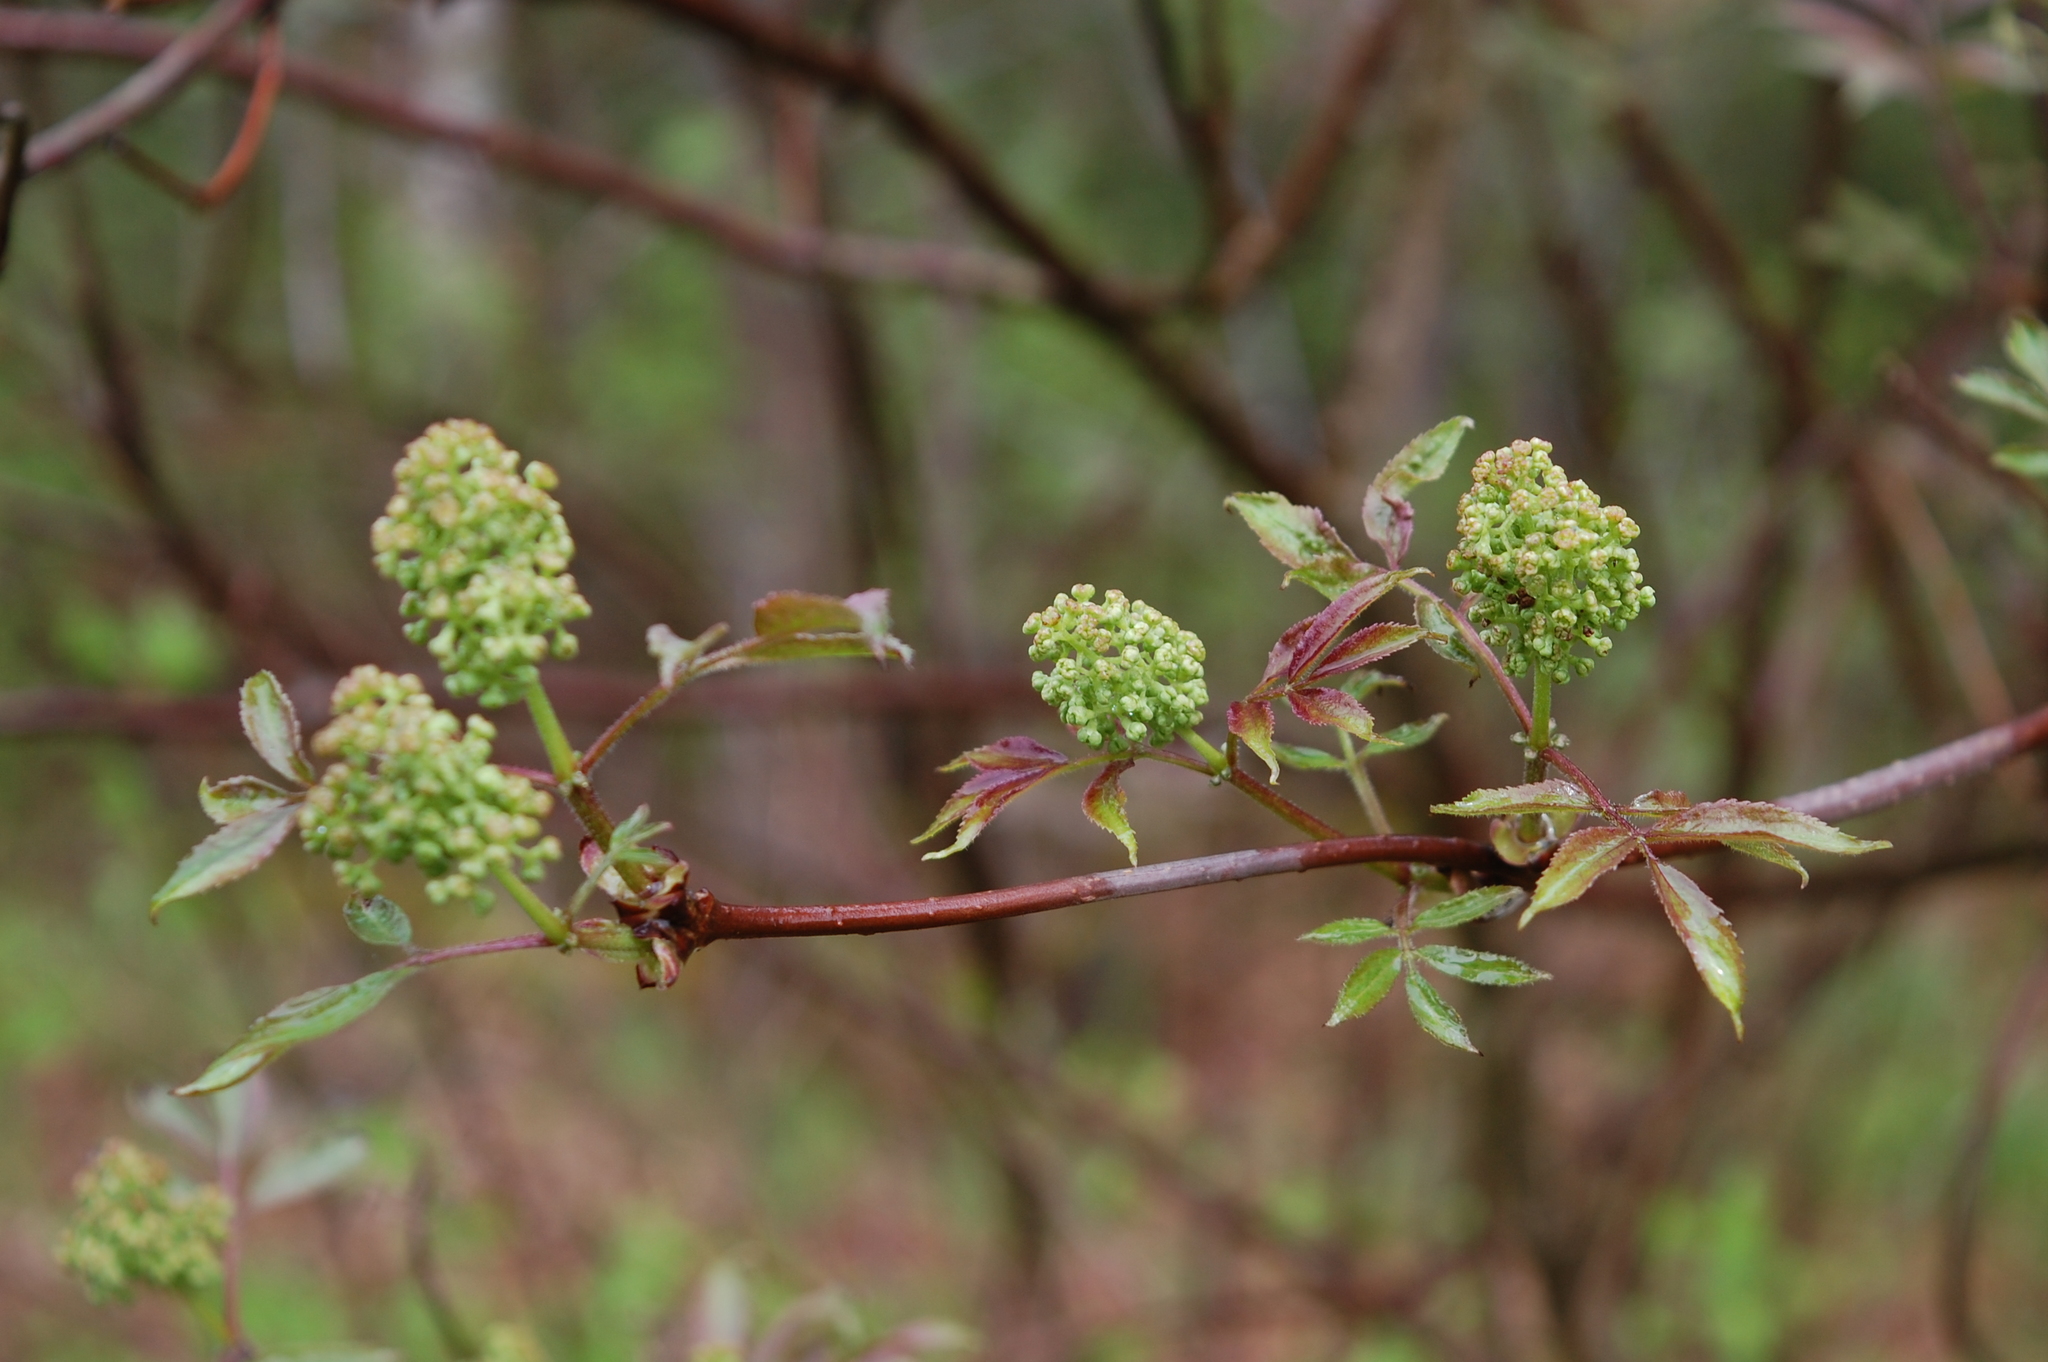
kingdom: Plantae
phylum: Tracheophyta
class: Magnoliopsida
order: Dipsacales
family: Viburnaceae
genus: Sambucus
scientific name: Sambucus racemosa
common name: Red-berried elder
